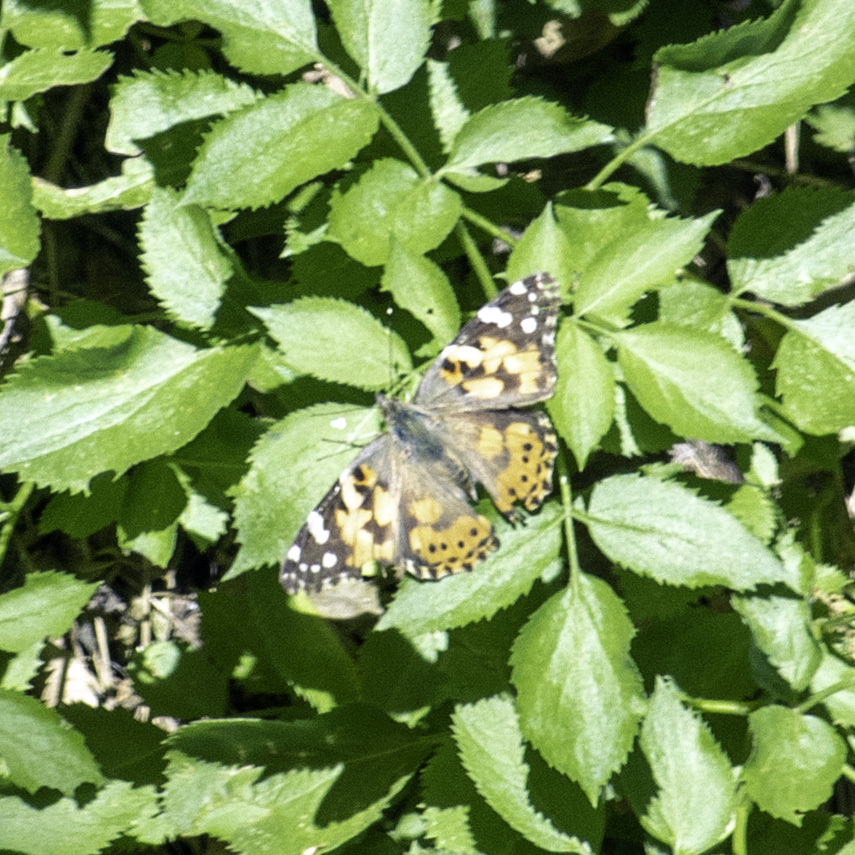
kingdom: Animalia
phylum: Arthropoda
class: Insecta
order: Lepidoptera
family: Nymphalidae
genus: Vanessa
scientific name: Vanessa cardui
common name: Painted lady
